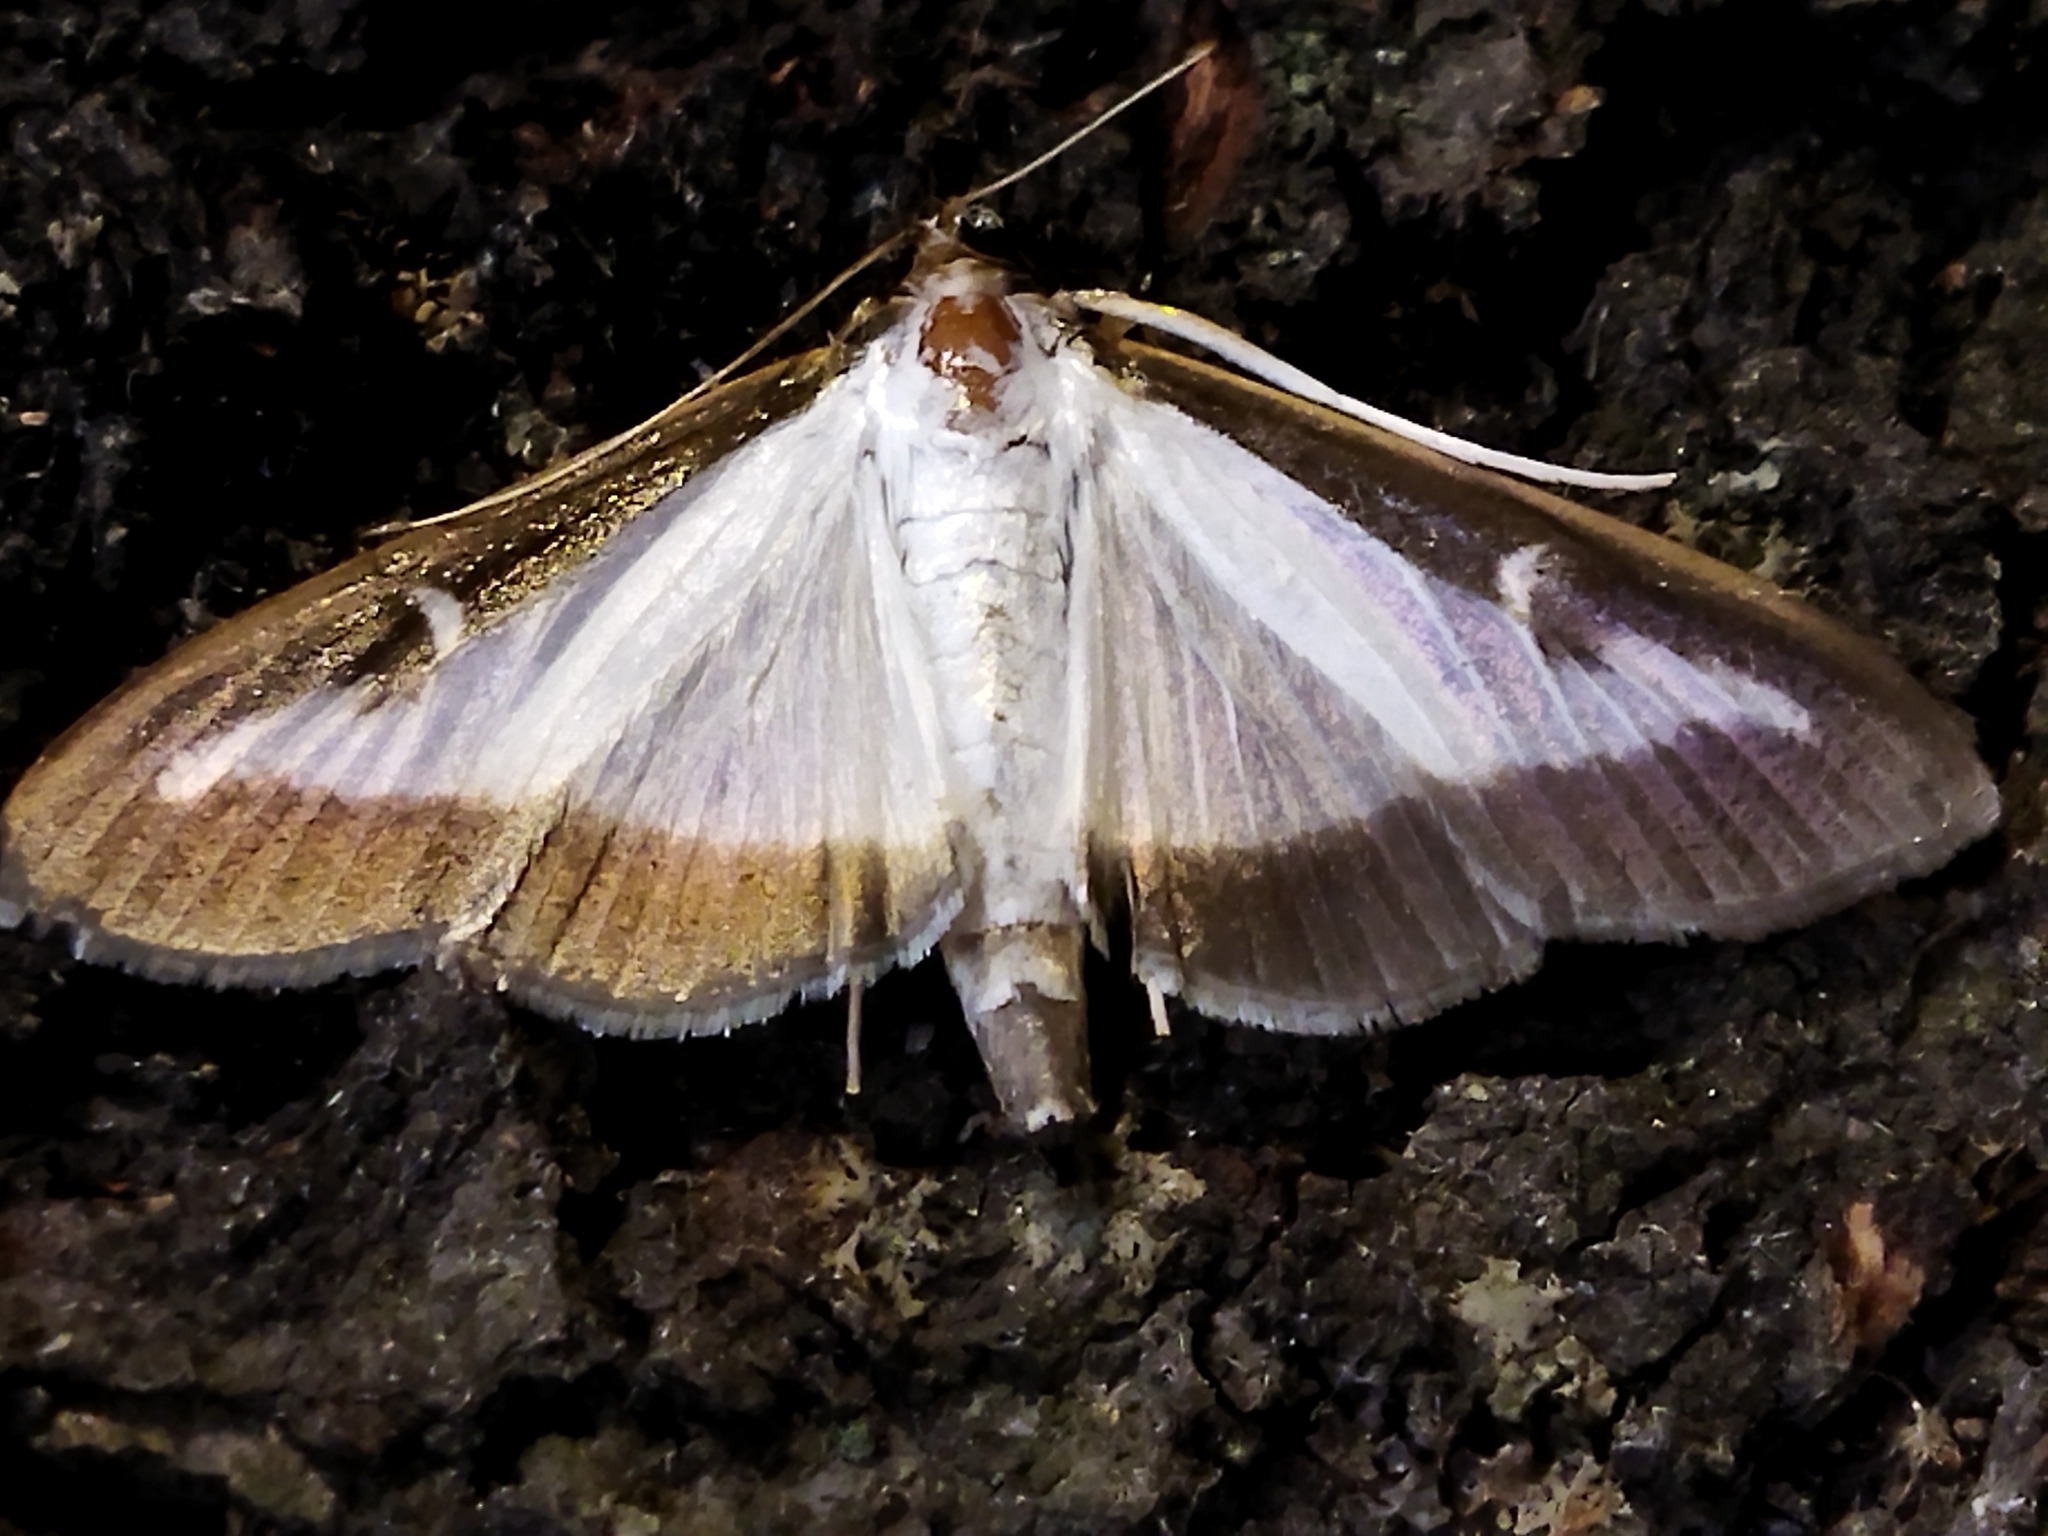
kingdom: Animalia
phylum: Arthropoda
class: Insecta
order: Lepidoptera
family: Crambidae
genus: Cydalima
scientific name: Cydalima perspectalis
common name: Box tree moth
